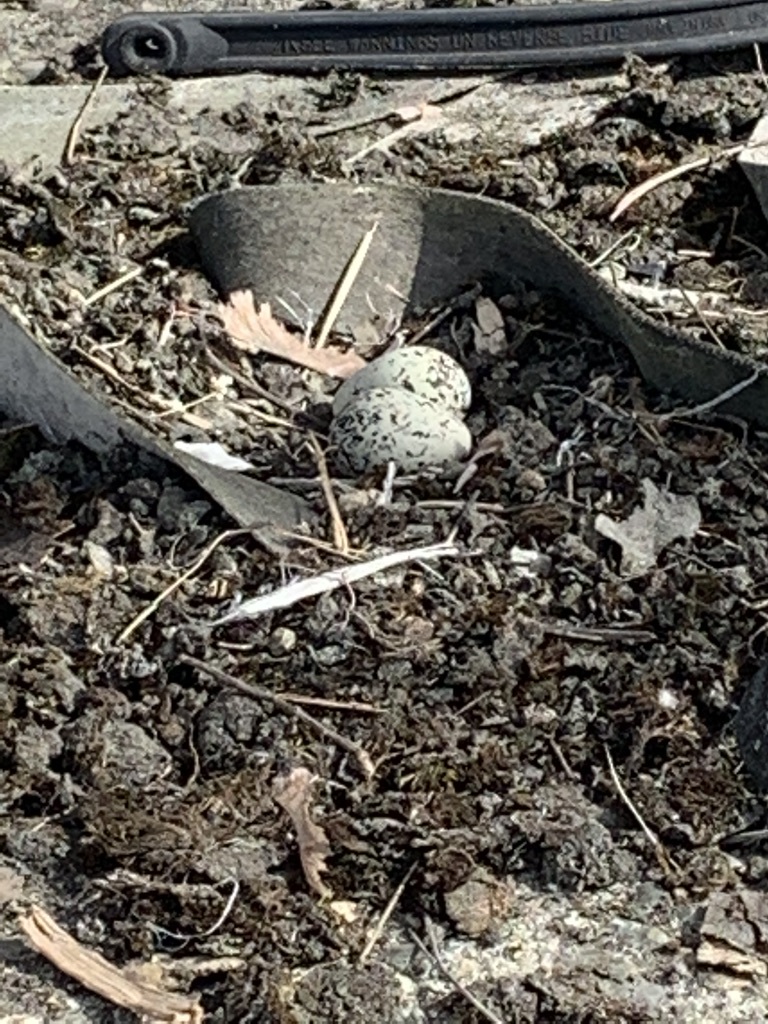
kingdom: Animalia
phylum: Chordata
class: Aves
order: Charadriiformes
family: Charadriidae
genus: Charadrius
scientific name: Charadrius vociferus
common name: Killdeer
